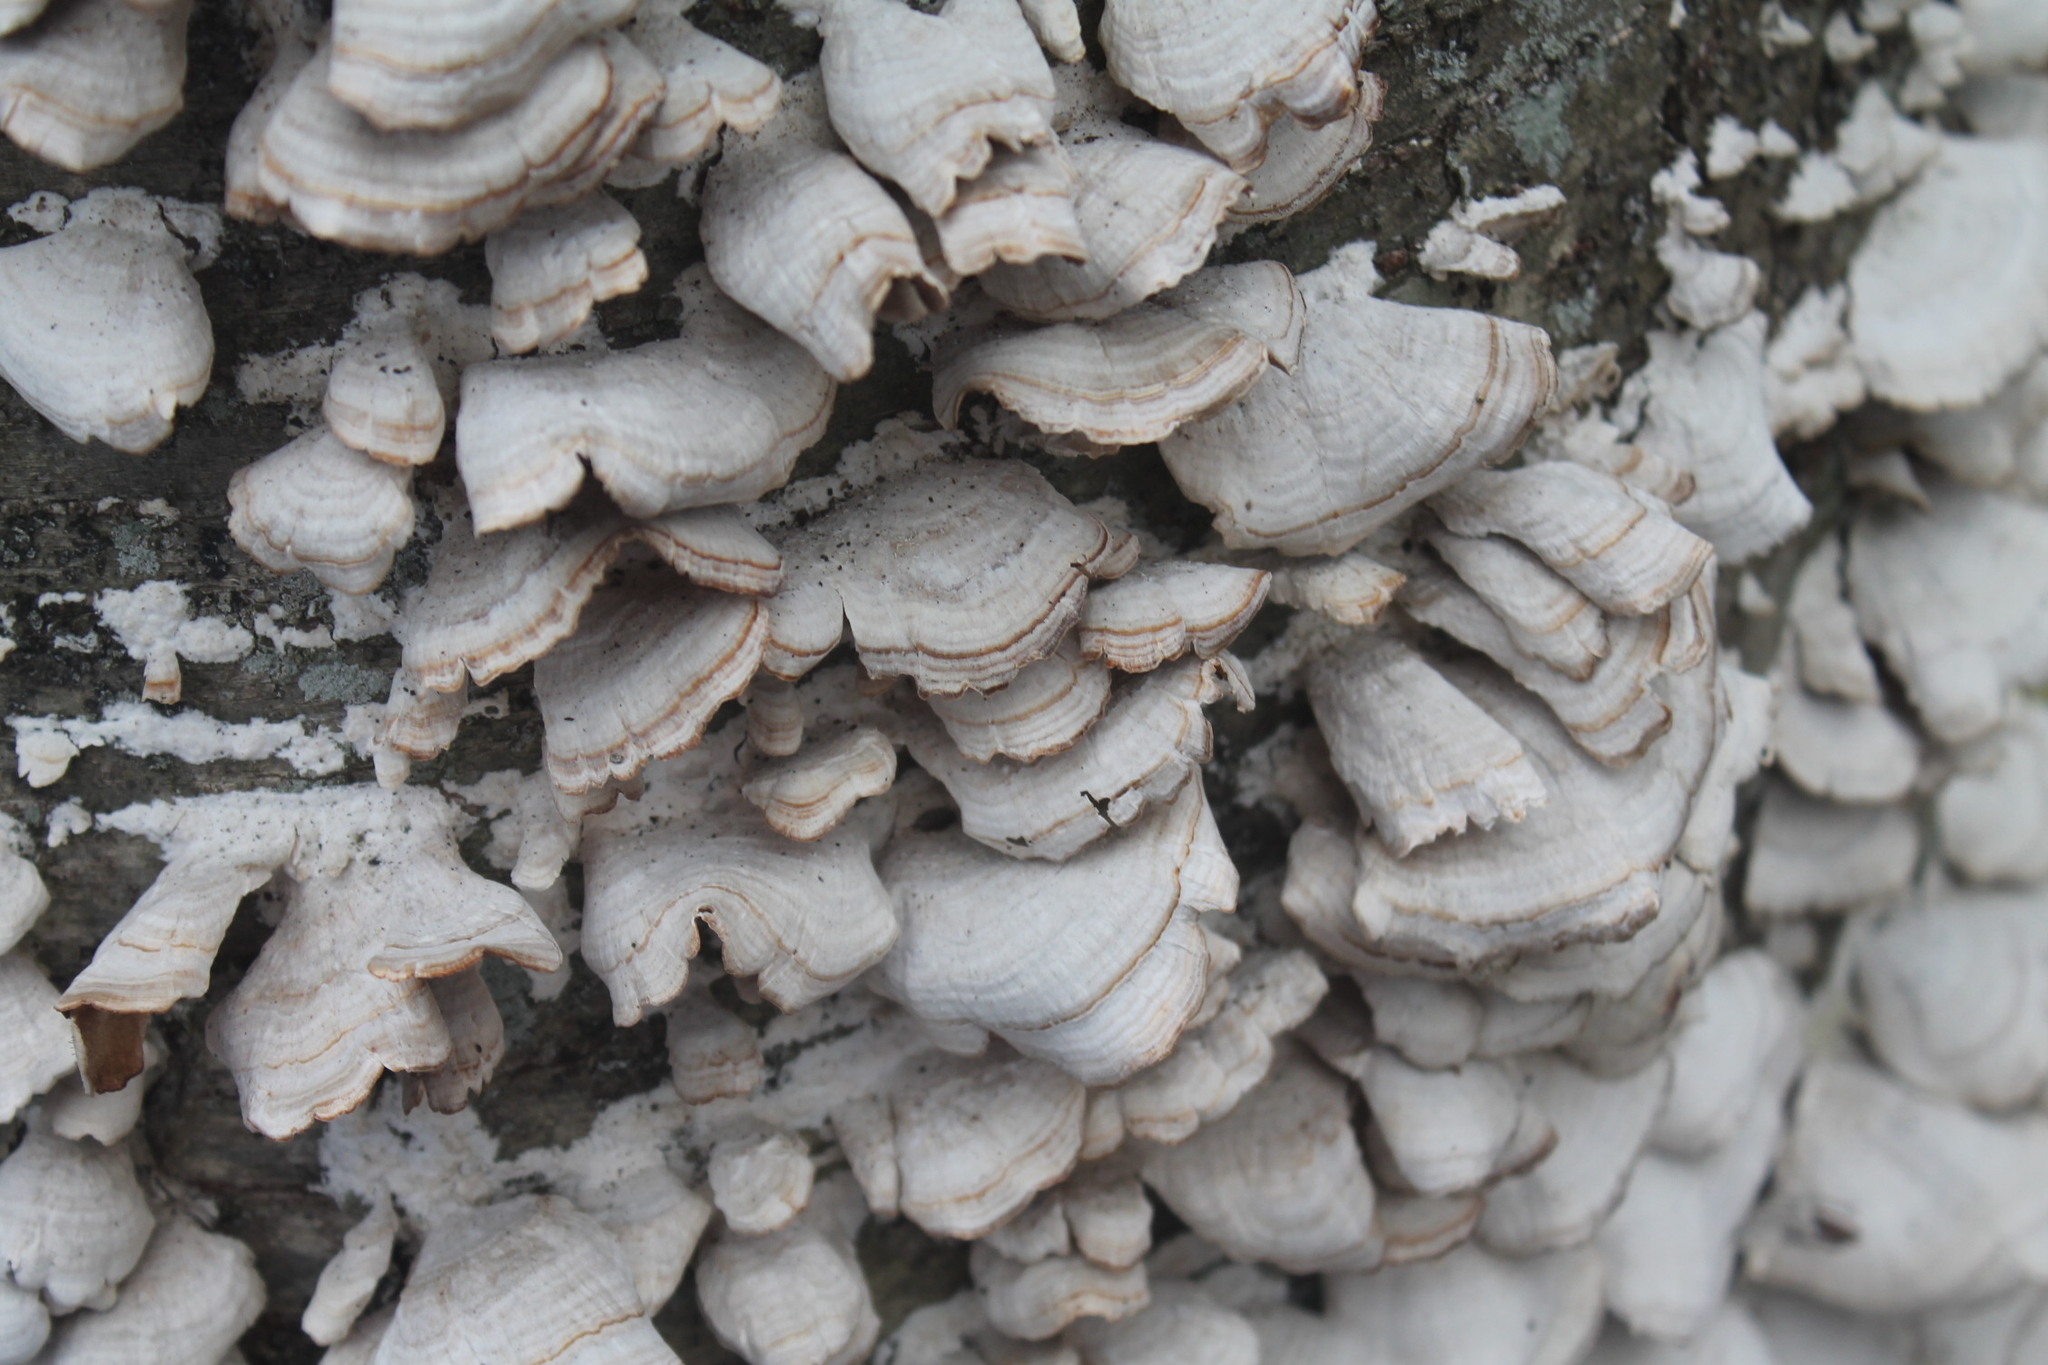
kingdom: Fungi
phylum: Basidiomycota
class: Agaricomycetes
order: Hymenochaetales
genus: Trichaptum
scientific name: Trichaptum biforme
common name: Violet-toothed polypore
